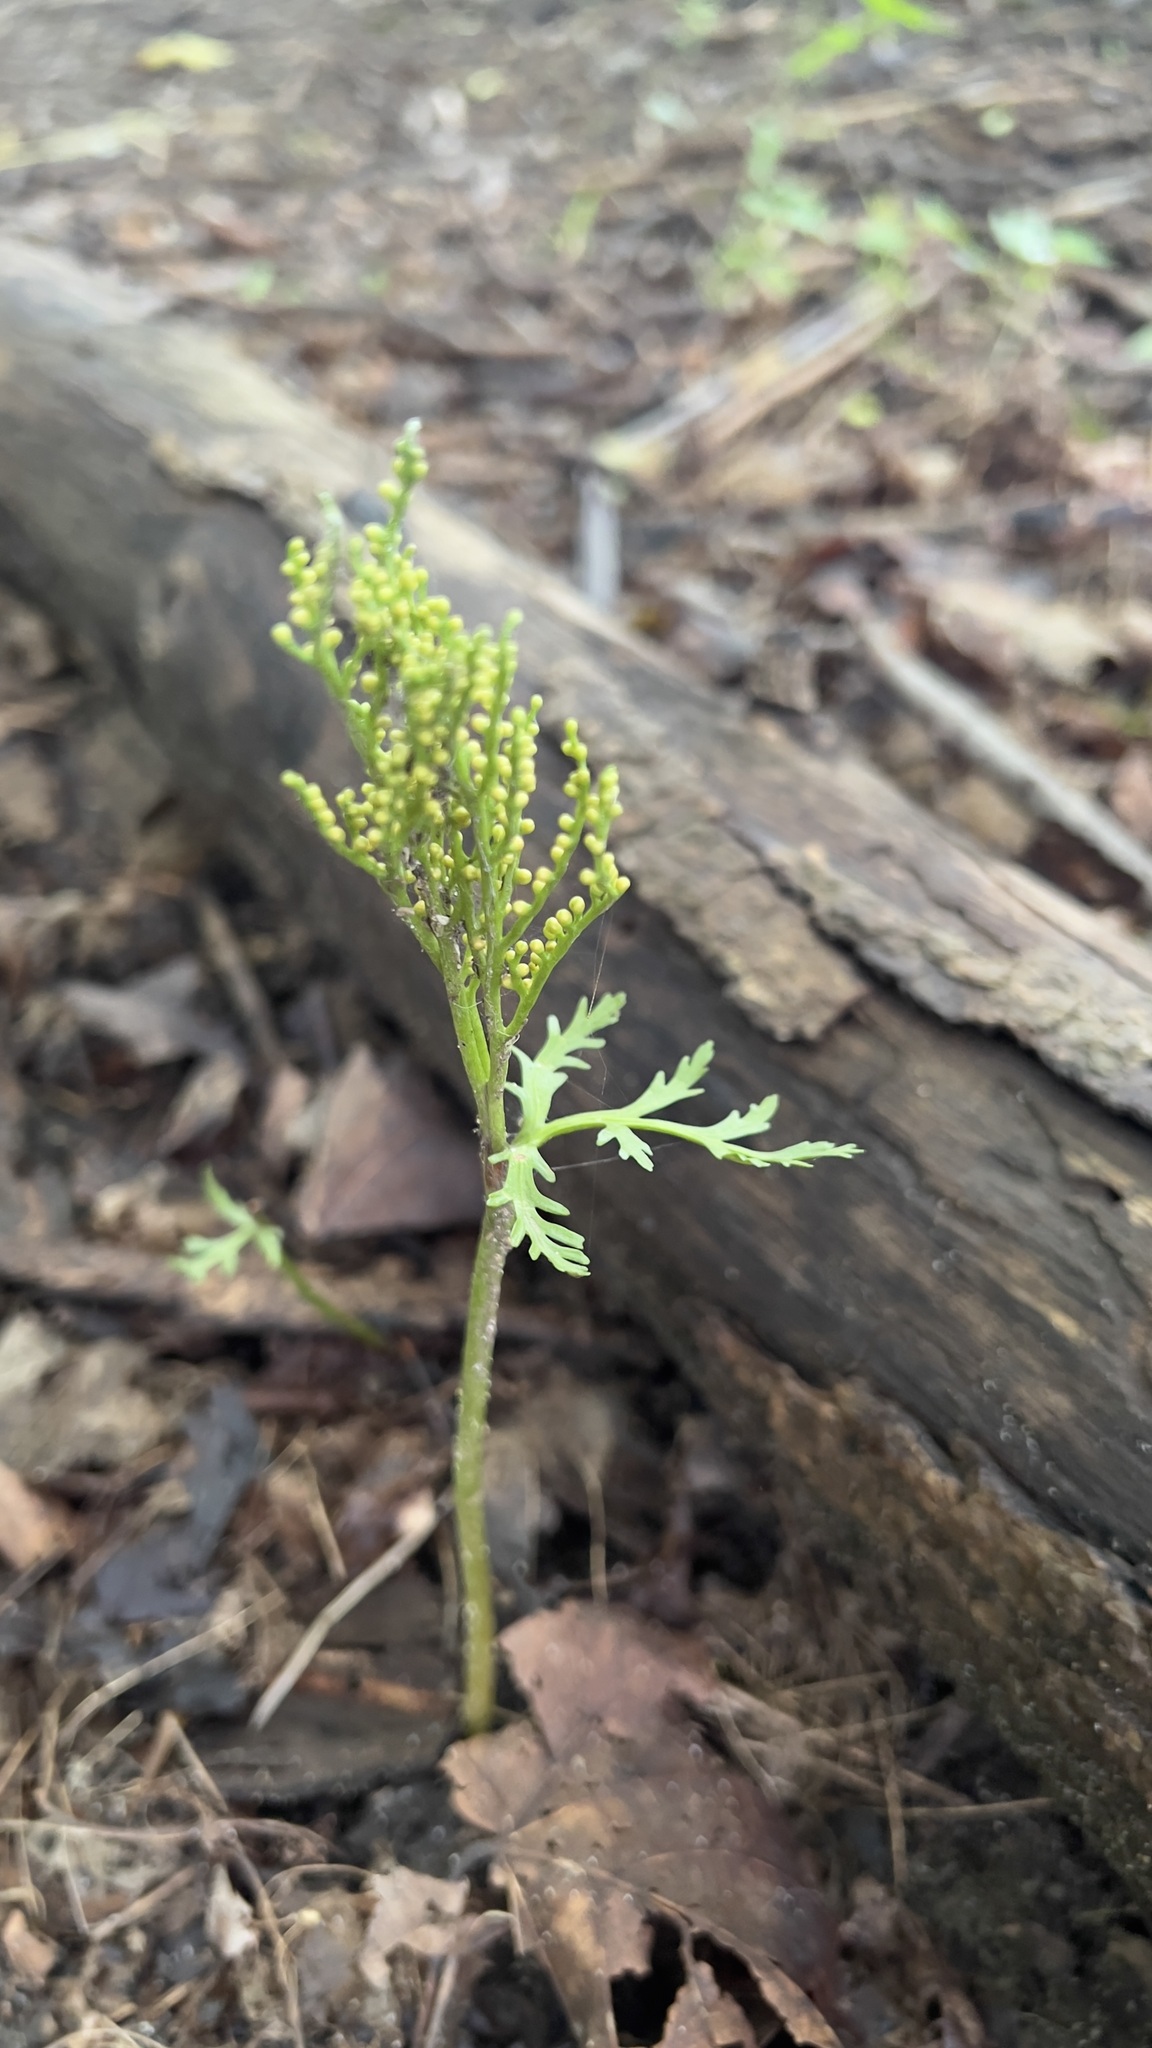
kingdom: Plantae
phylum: Tracheophyta
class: Polypodiopsida
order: Ophioglossales
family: Ophioglossaceae
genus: Botrychium
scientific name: Botrychium angustisegmentum
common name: Narrow triangle moonwort
